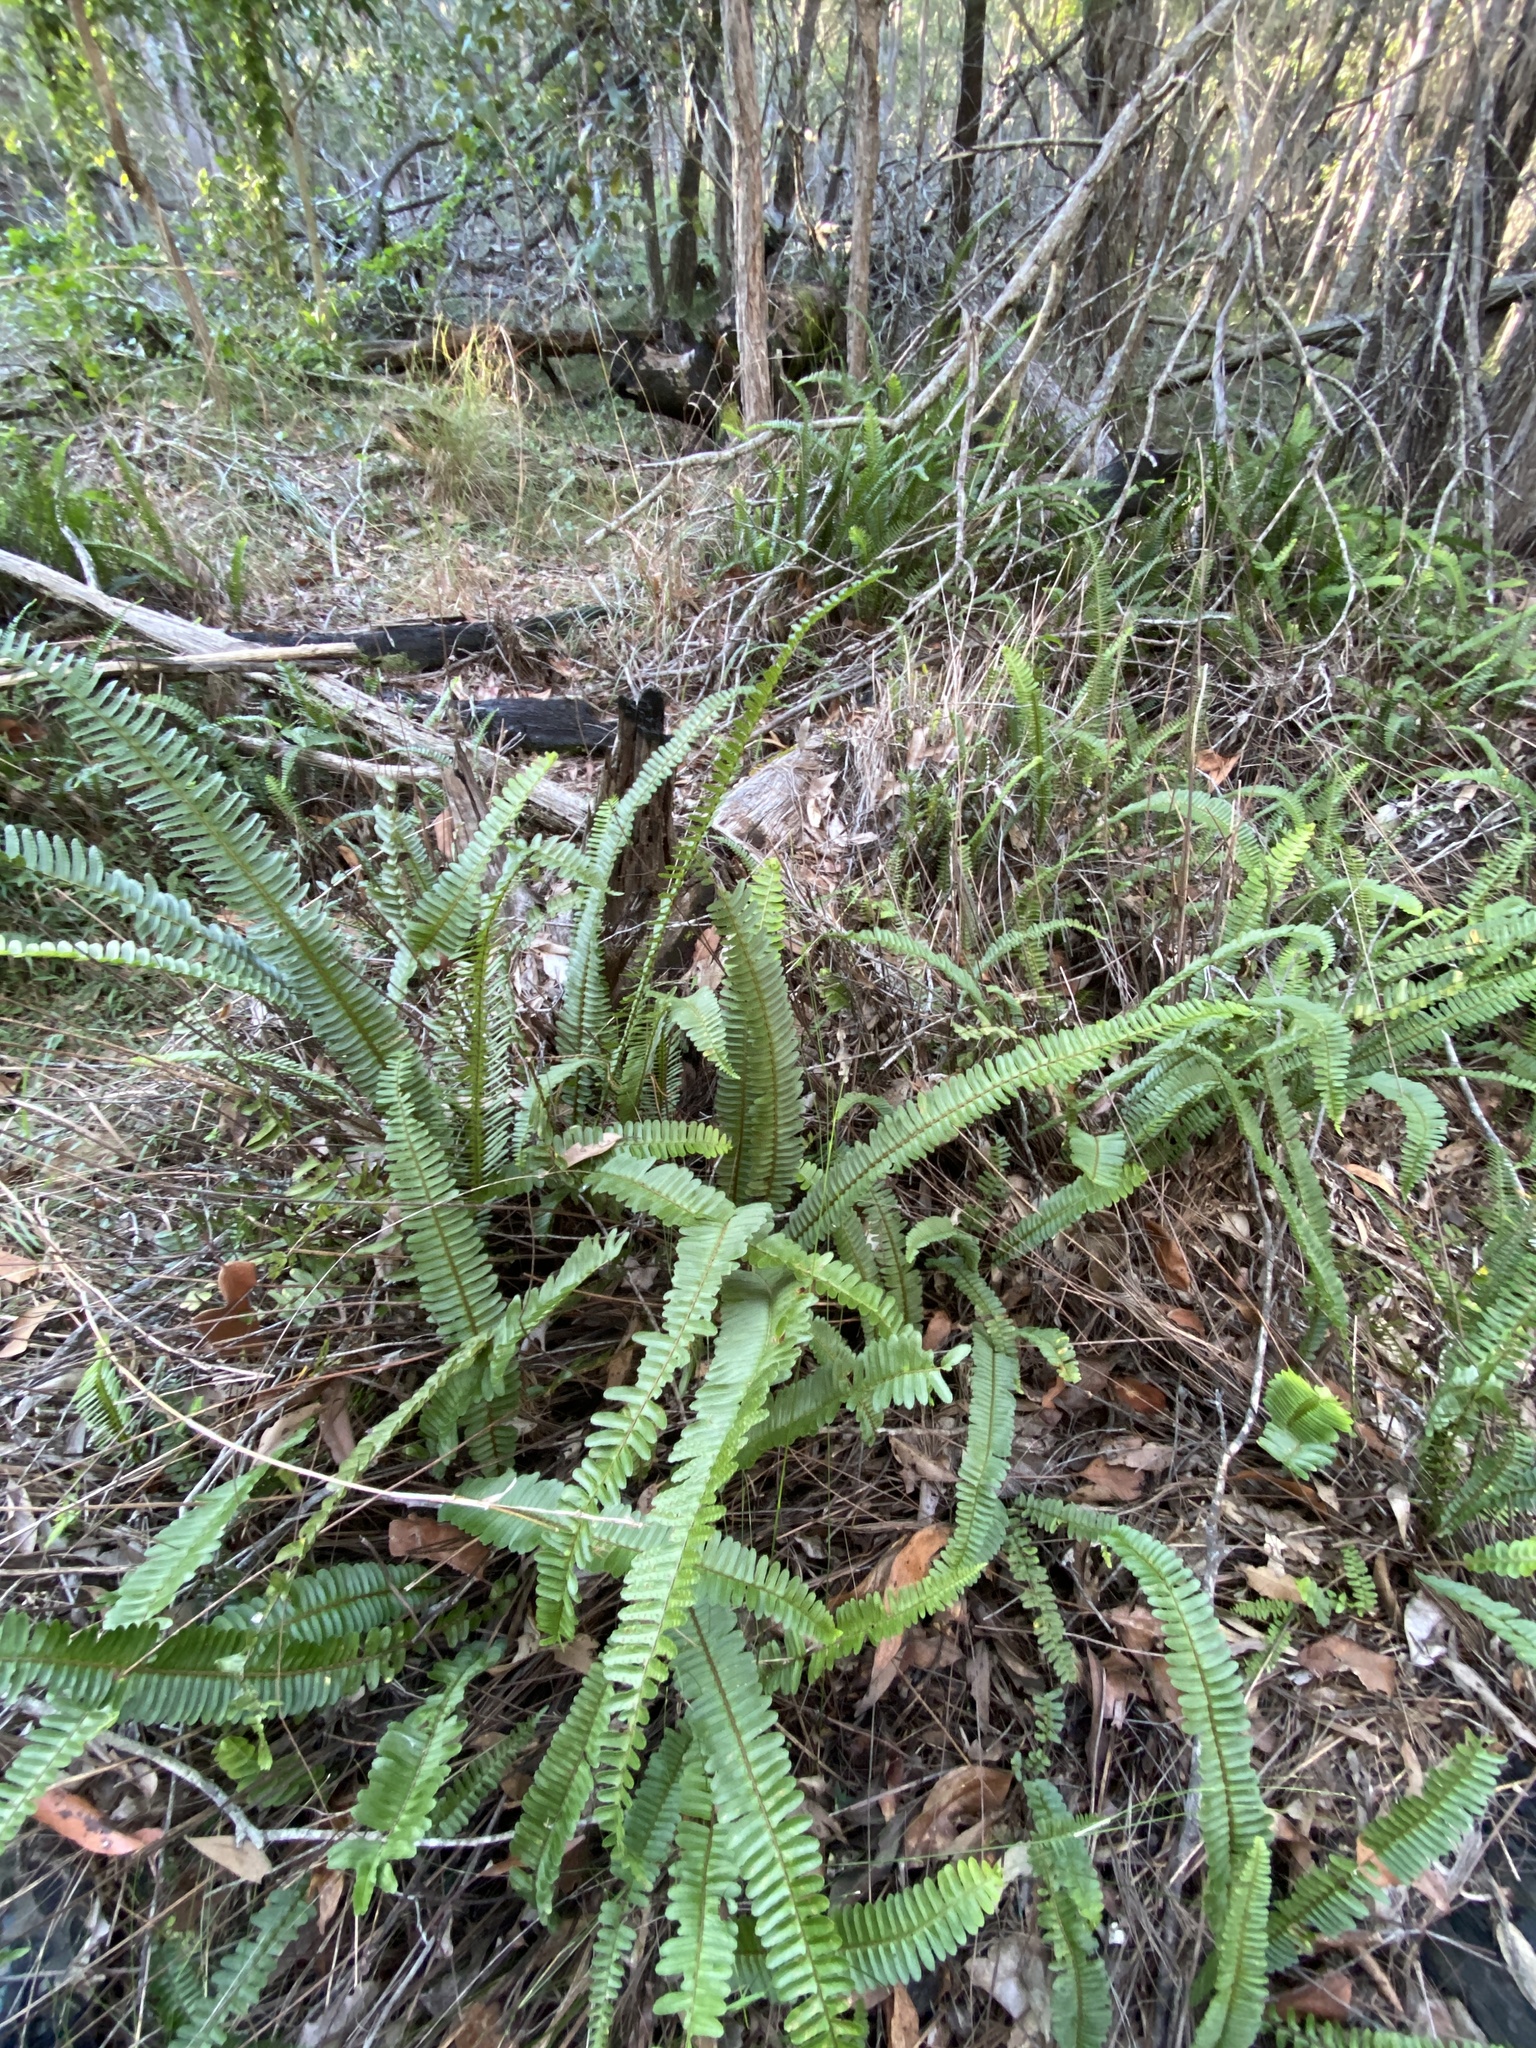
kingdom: Plantae
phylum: Tracheophyta
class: Polypodiopsida
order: Polypodiales
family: Nephrolepidaceae
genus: Nephrolepis
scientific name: Nephrolepis cordifolia
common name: Narrow swordfern
